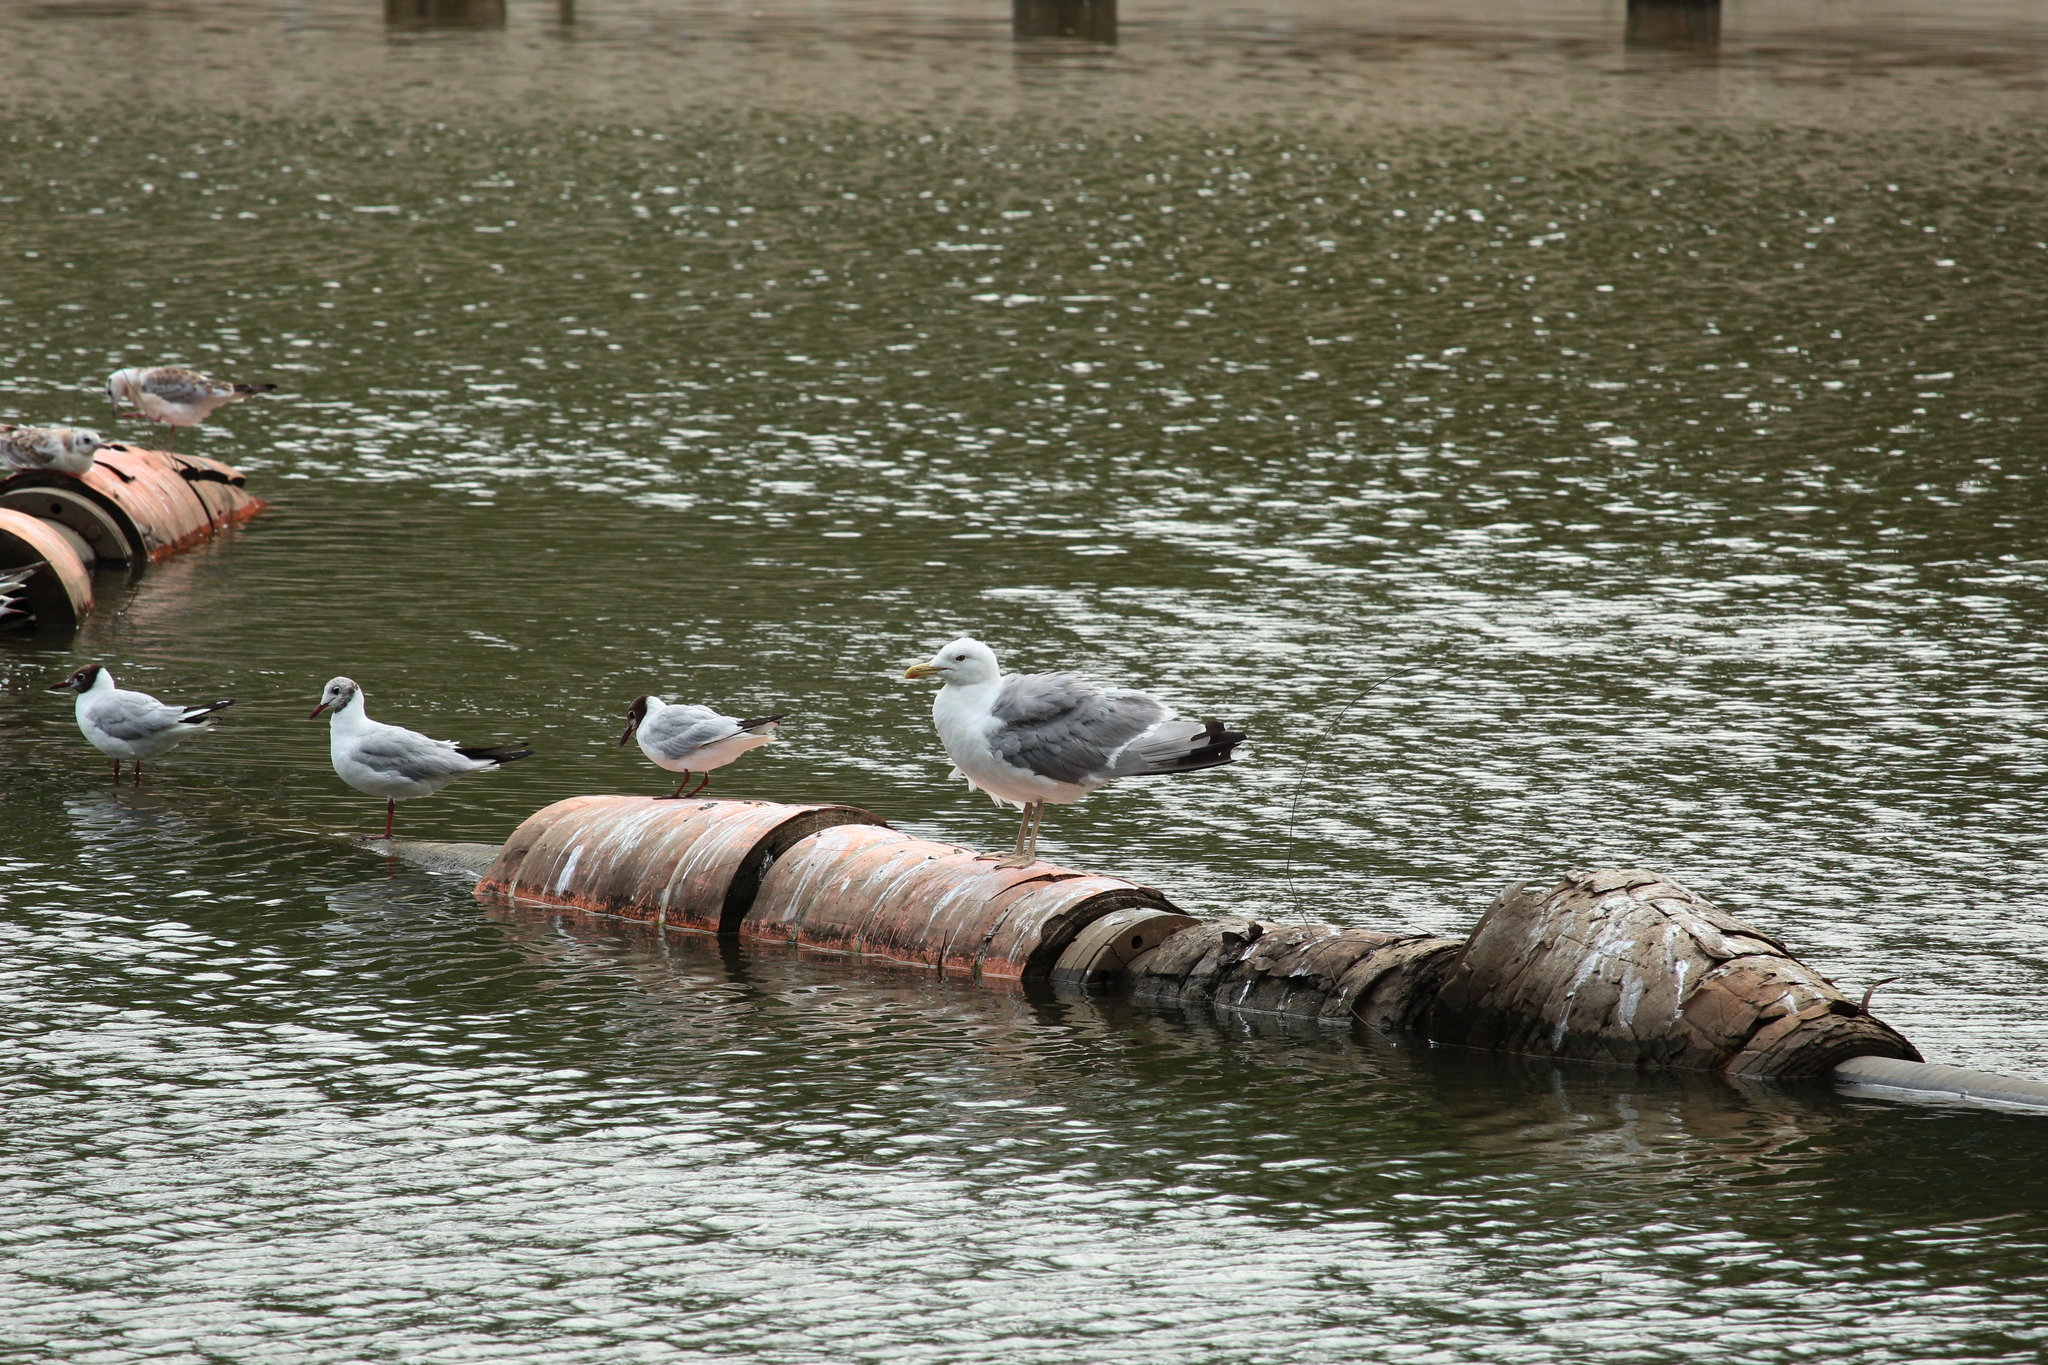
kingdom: Animalia
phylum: Chordata
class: Aves
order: Charadriiformes
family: Laridae
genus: Larus
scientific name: Larus argentatus
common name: Herring gull
